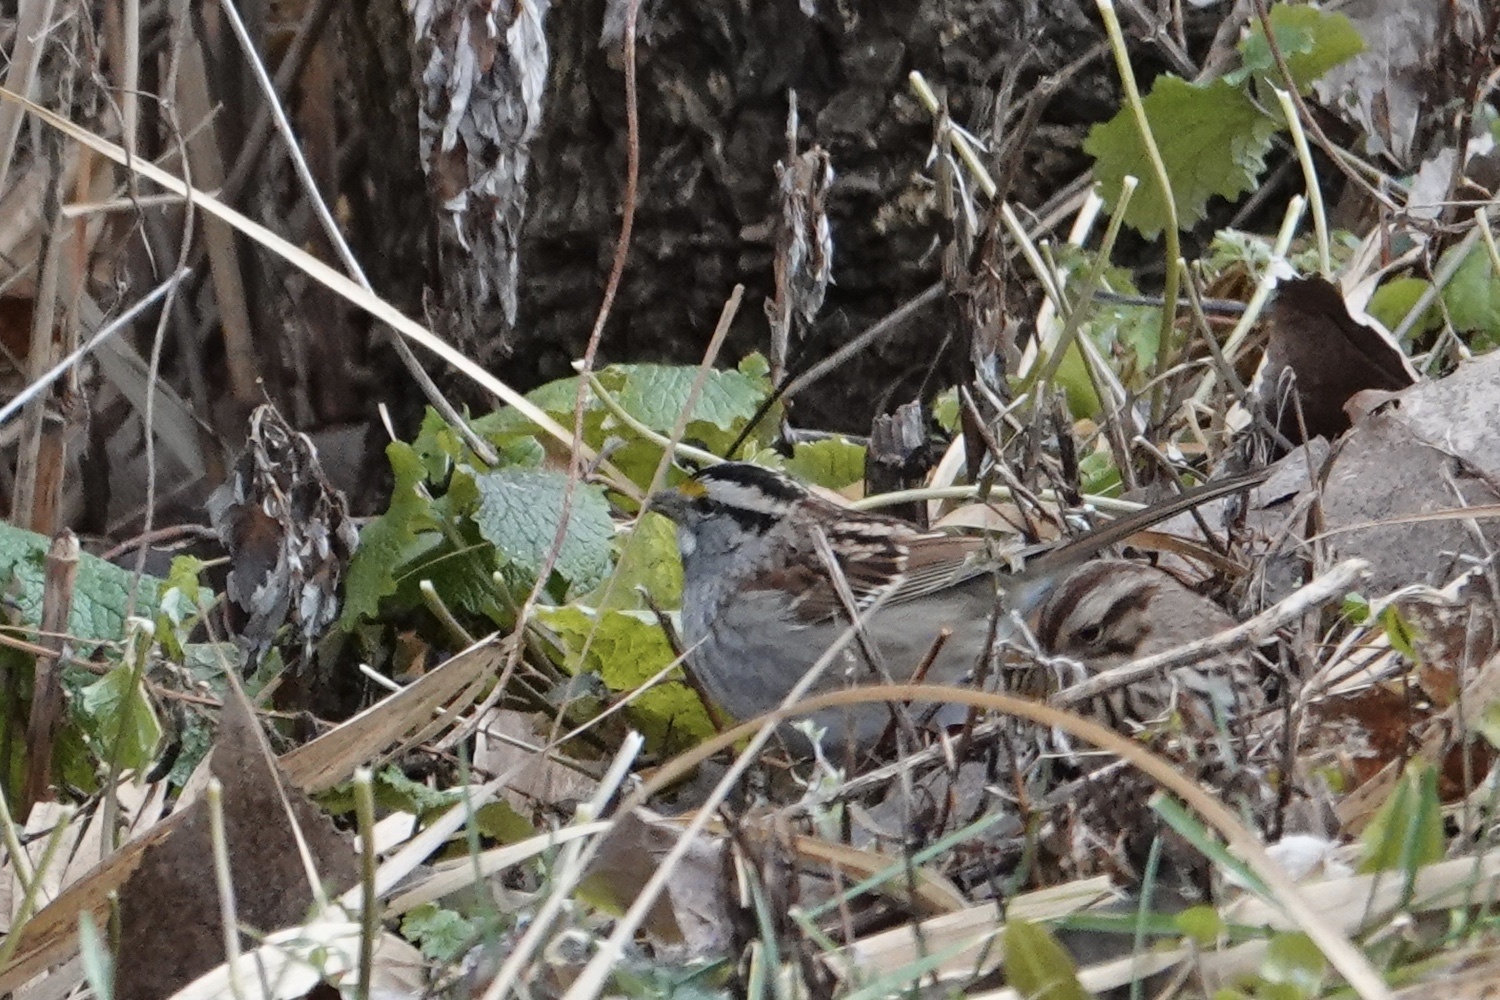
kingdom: Animalia
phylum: Chordata
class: Aves
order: Passeriformes
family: Passerellidae
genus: Zonotrichia
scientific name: Zonotrichia albicollis
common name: White-throated sparrow
